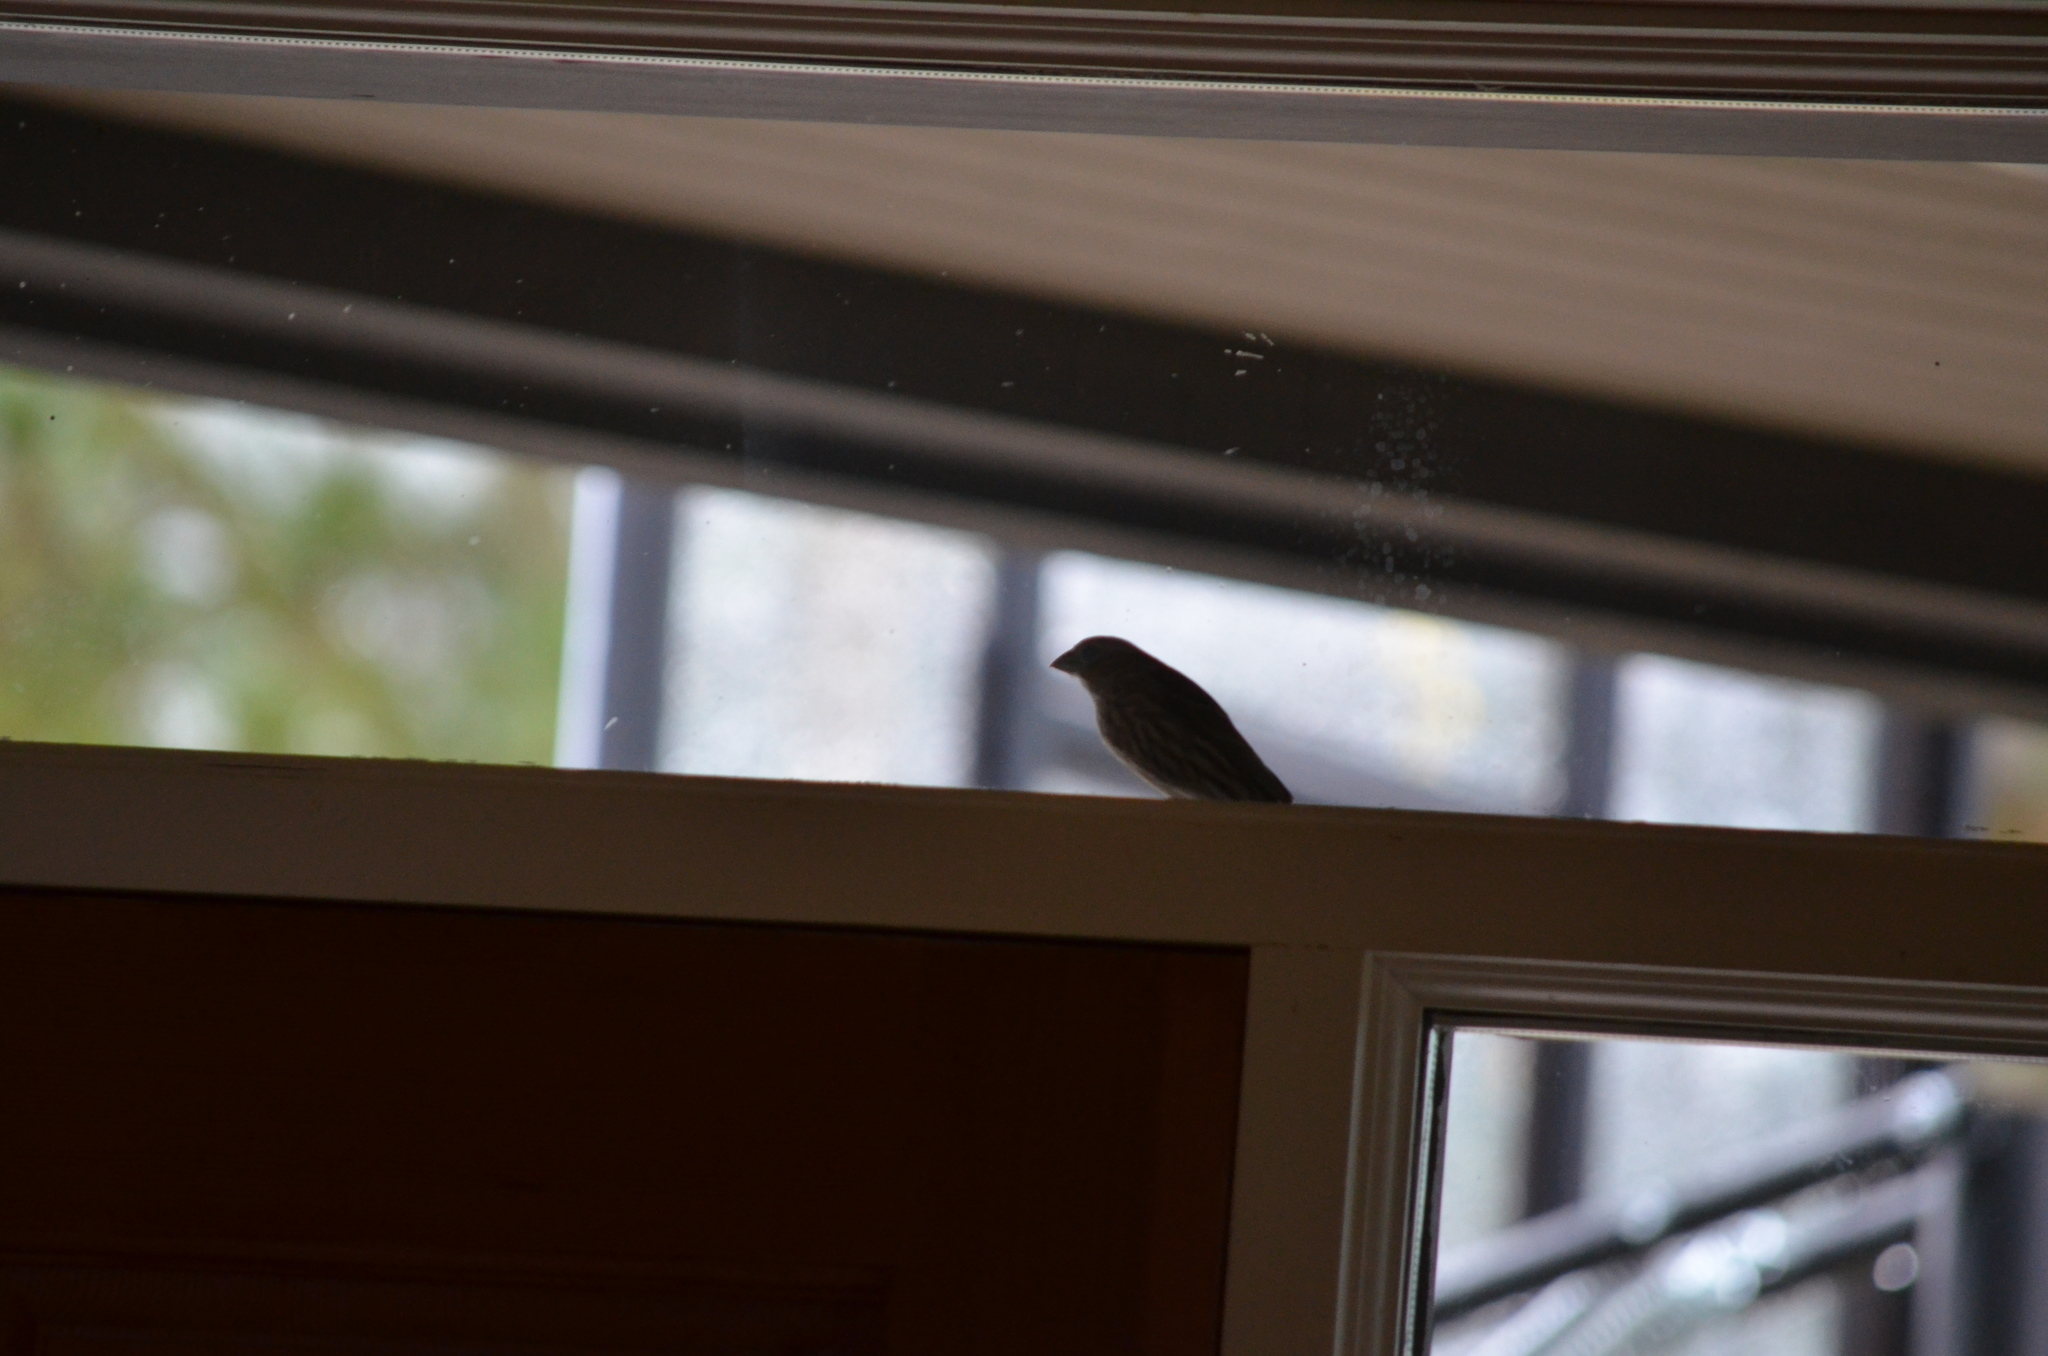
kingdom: Animalia
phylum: Chordata
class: Aves
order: Passeriformes
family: Fringillidae
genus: Haemorhous
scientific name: Haemorhous mexicanus
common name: House finch
